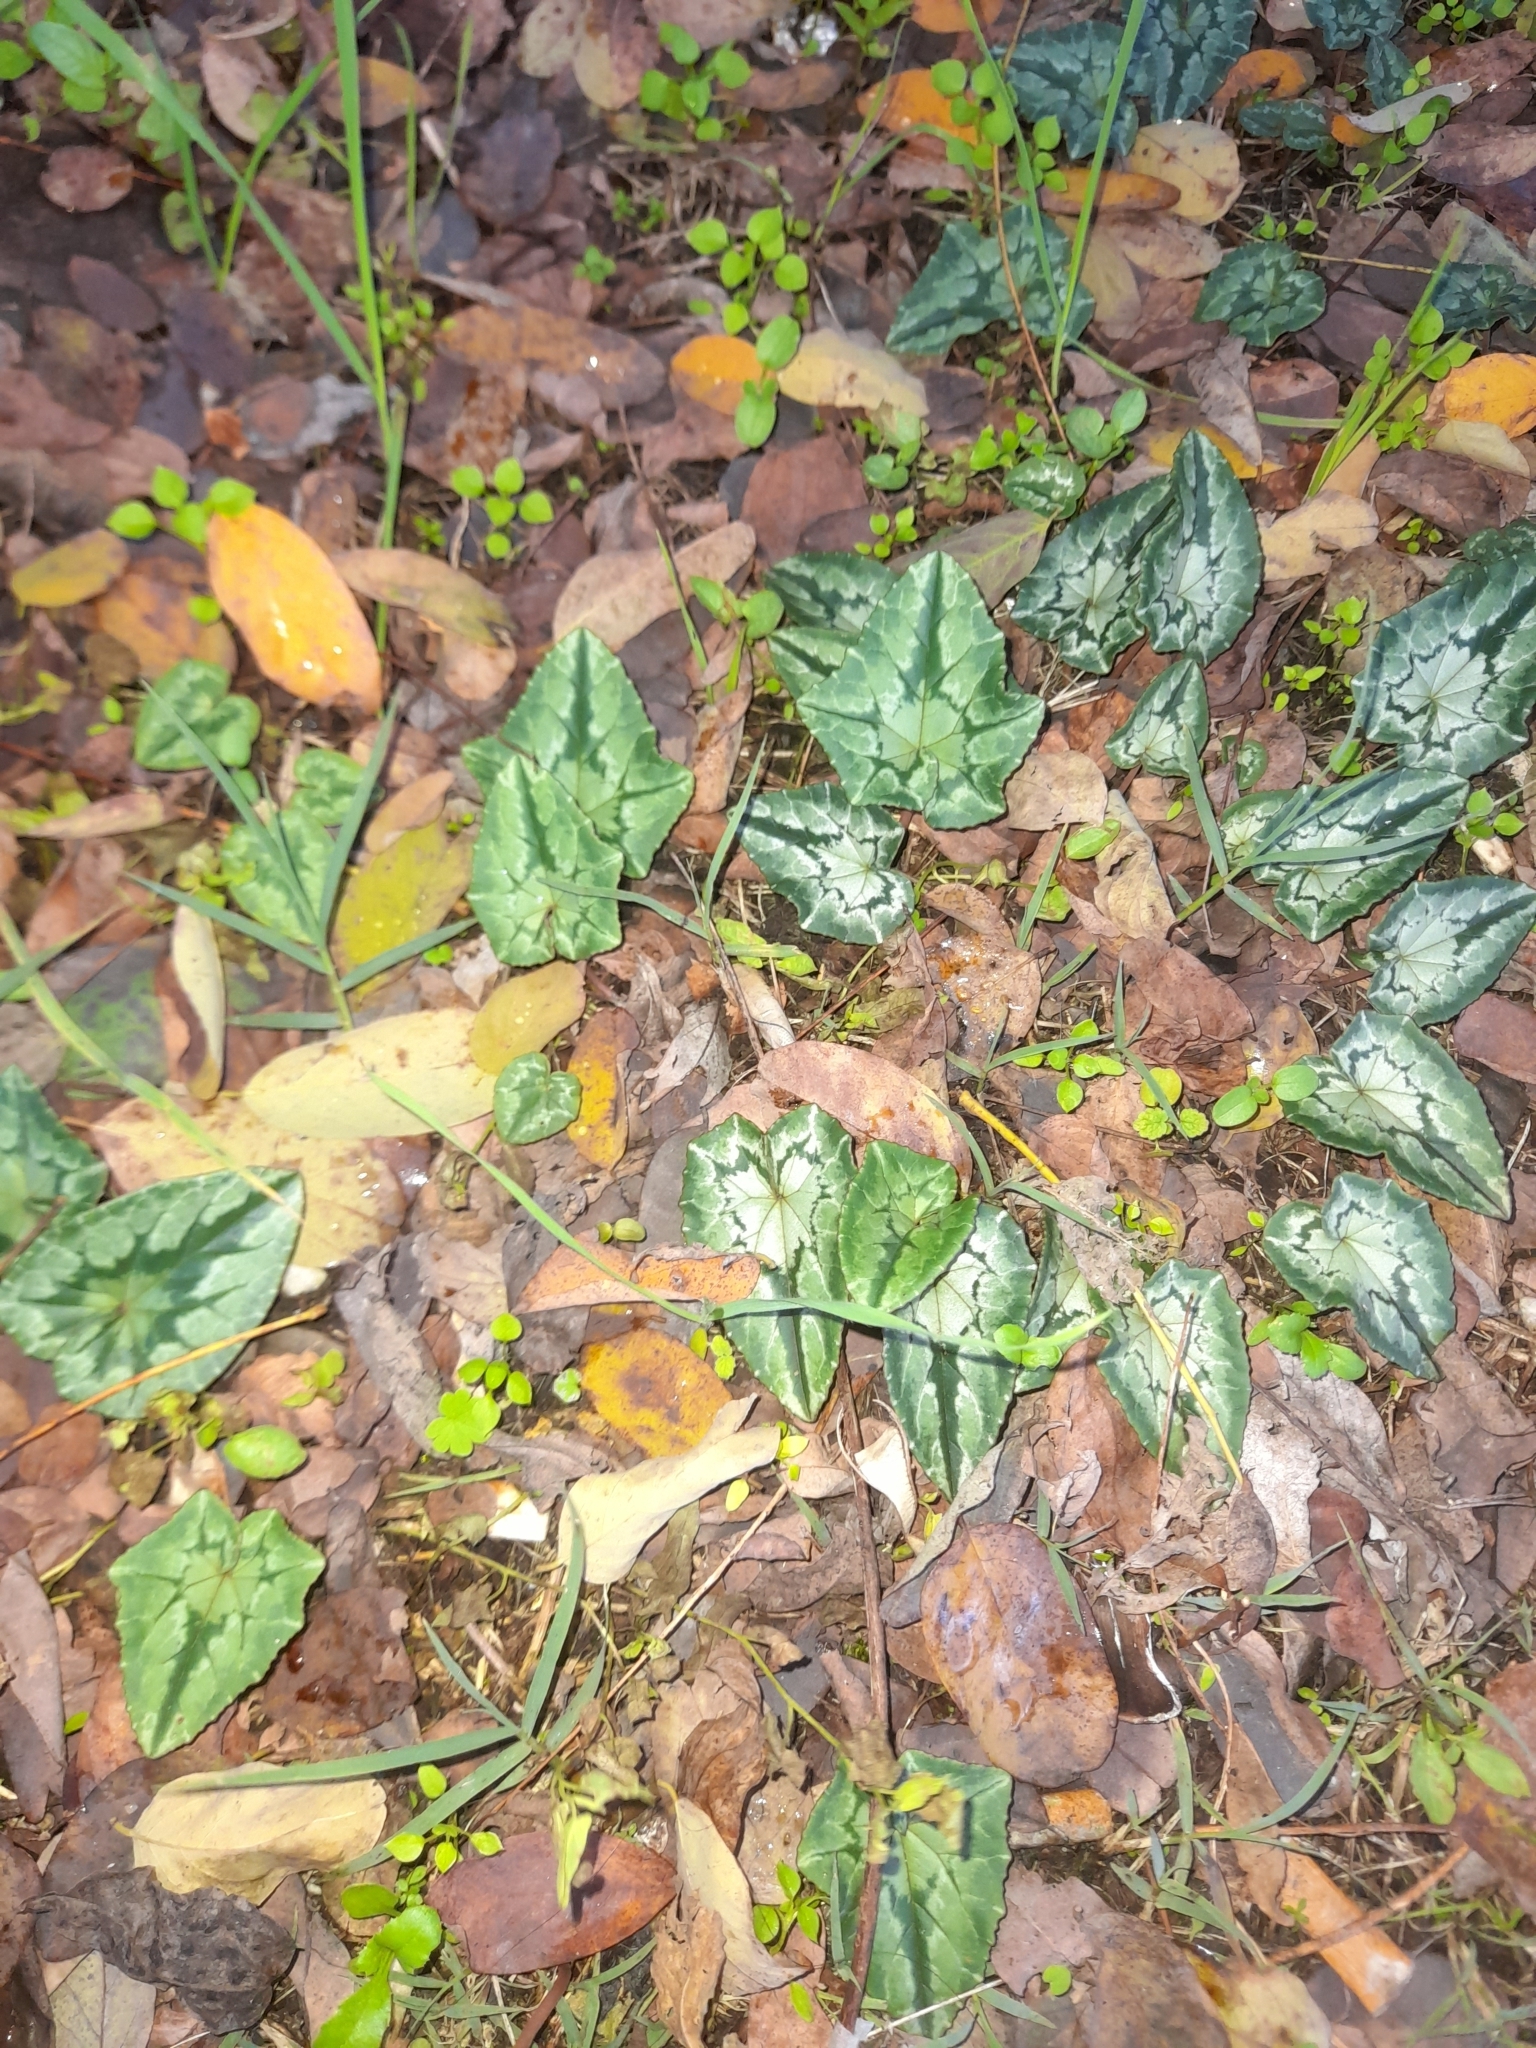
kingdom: Plantae
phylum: Tracheophyta
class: Magnoliopsida
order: Ericales
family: Primulaceae
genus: Cyclamen
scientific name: Cyclamen hederifolium
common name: Sowbread
